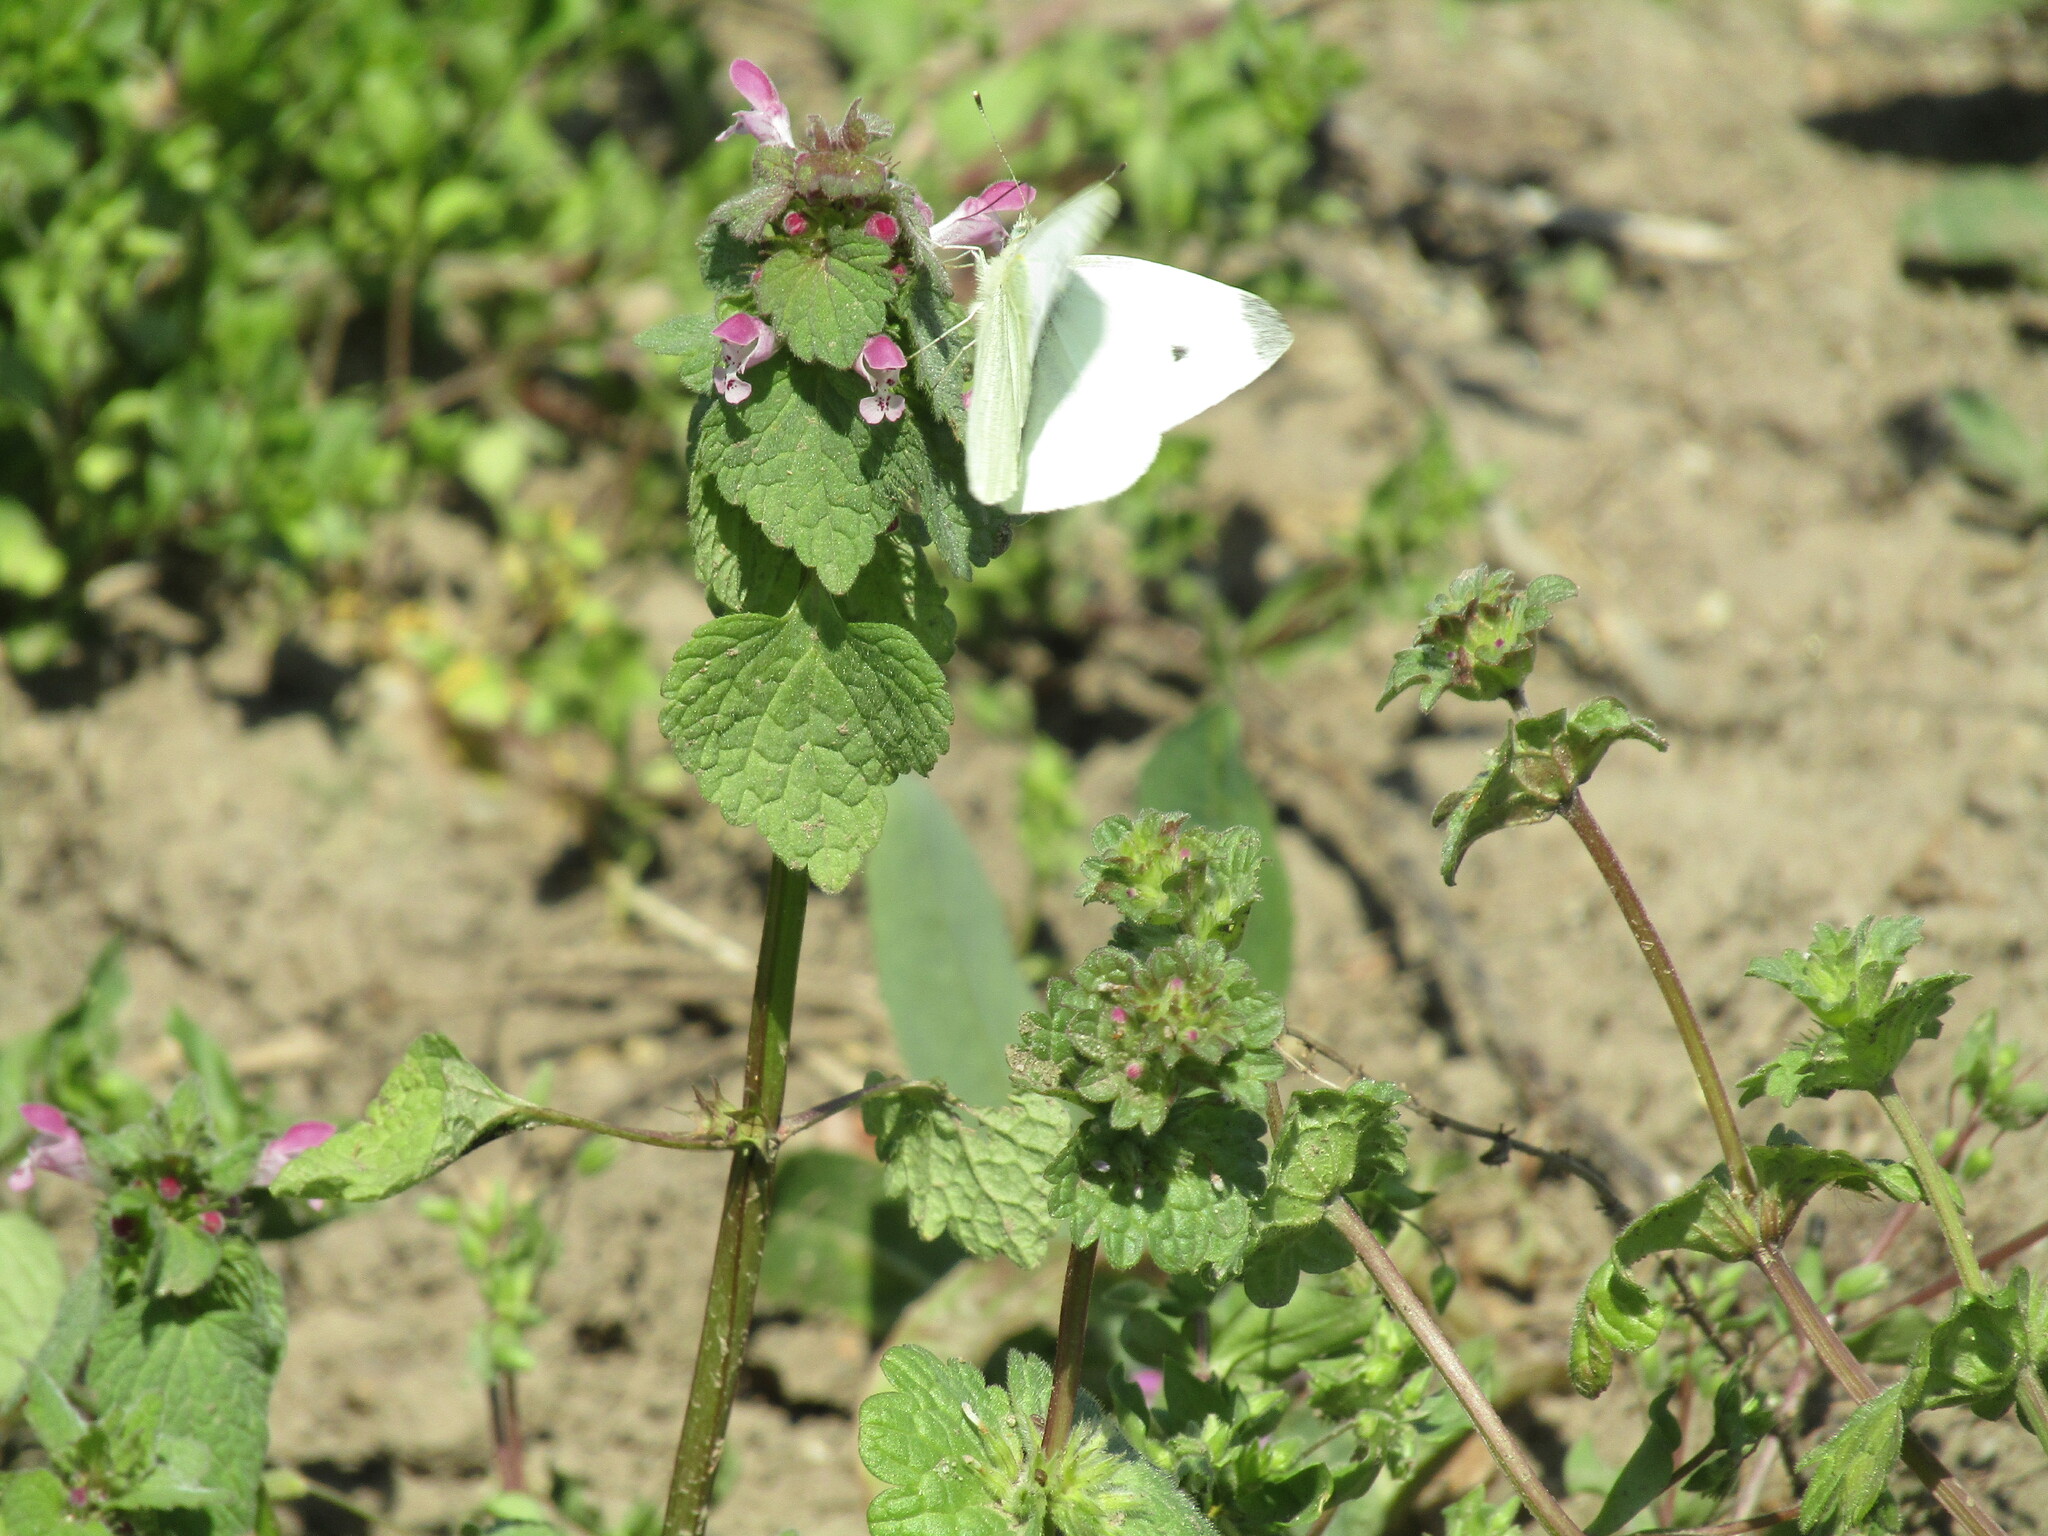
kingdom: Animalia
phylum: Arthropoda
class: Insecta
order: Lepidoptera
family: Pieridae
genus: Pieris
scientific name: Pieris rapae
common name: Small white
